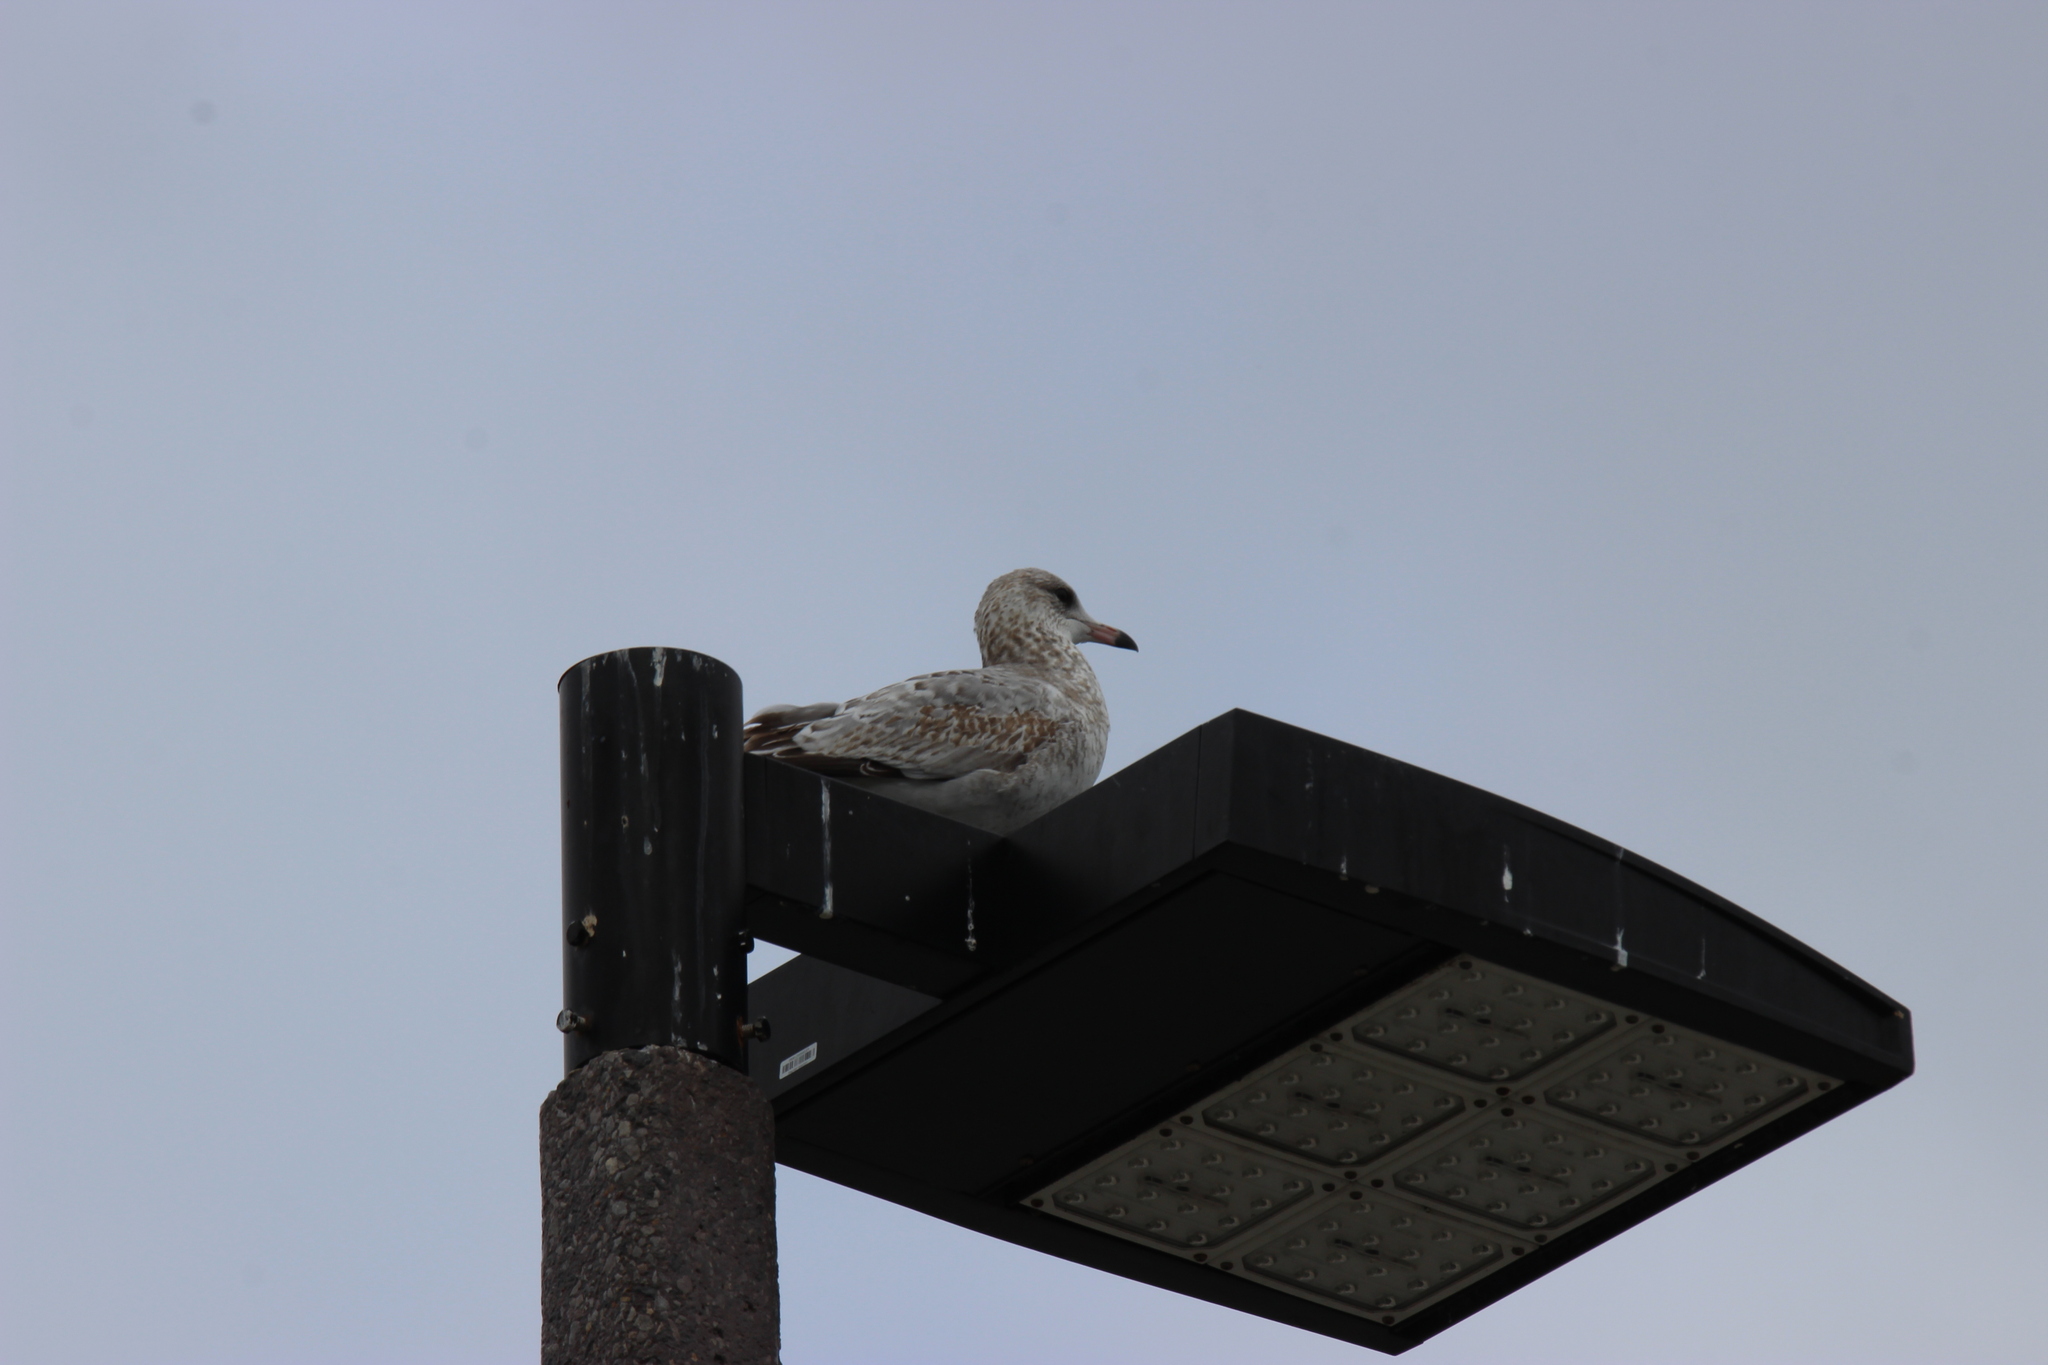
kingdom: Animalia
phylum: Chordata
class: Aves
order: Charadriiformes
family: Laridae
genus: Larus
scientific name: Larus delawarensis
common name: Ring-billed gull
